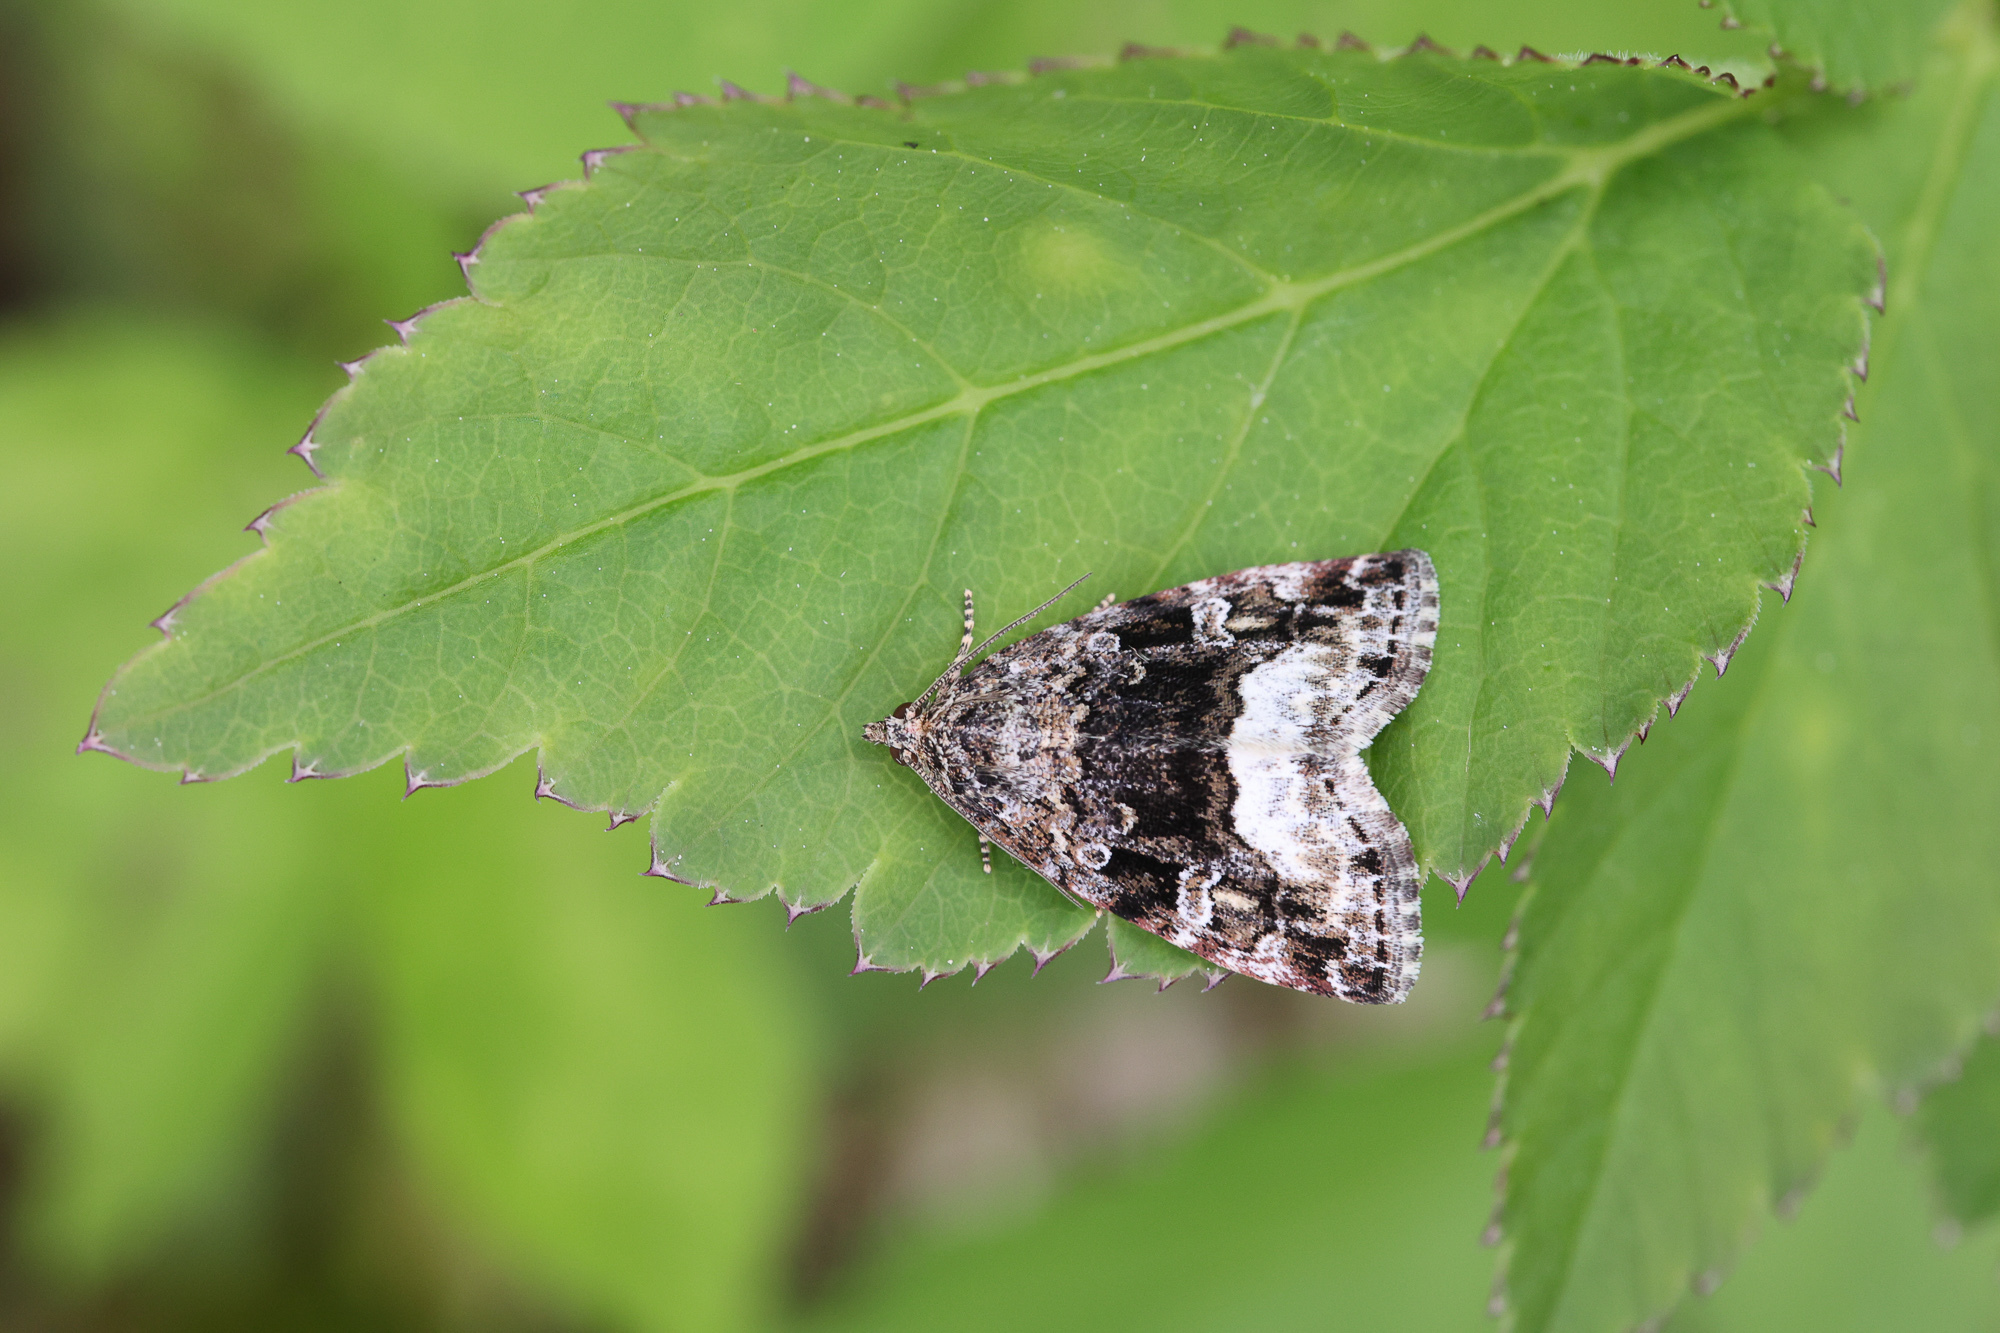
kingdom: Animalia
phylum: Arthropoda
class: Insecta
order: Lepidoptera
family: Noctuidae
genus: Deltote
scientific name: Deltote pygarga
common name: Marbled white spot
